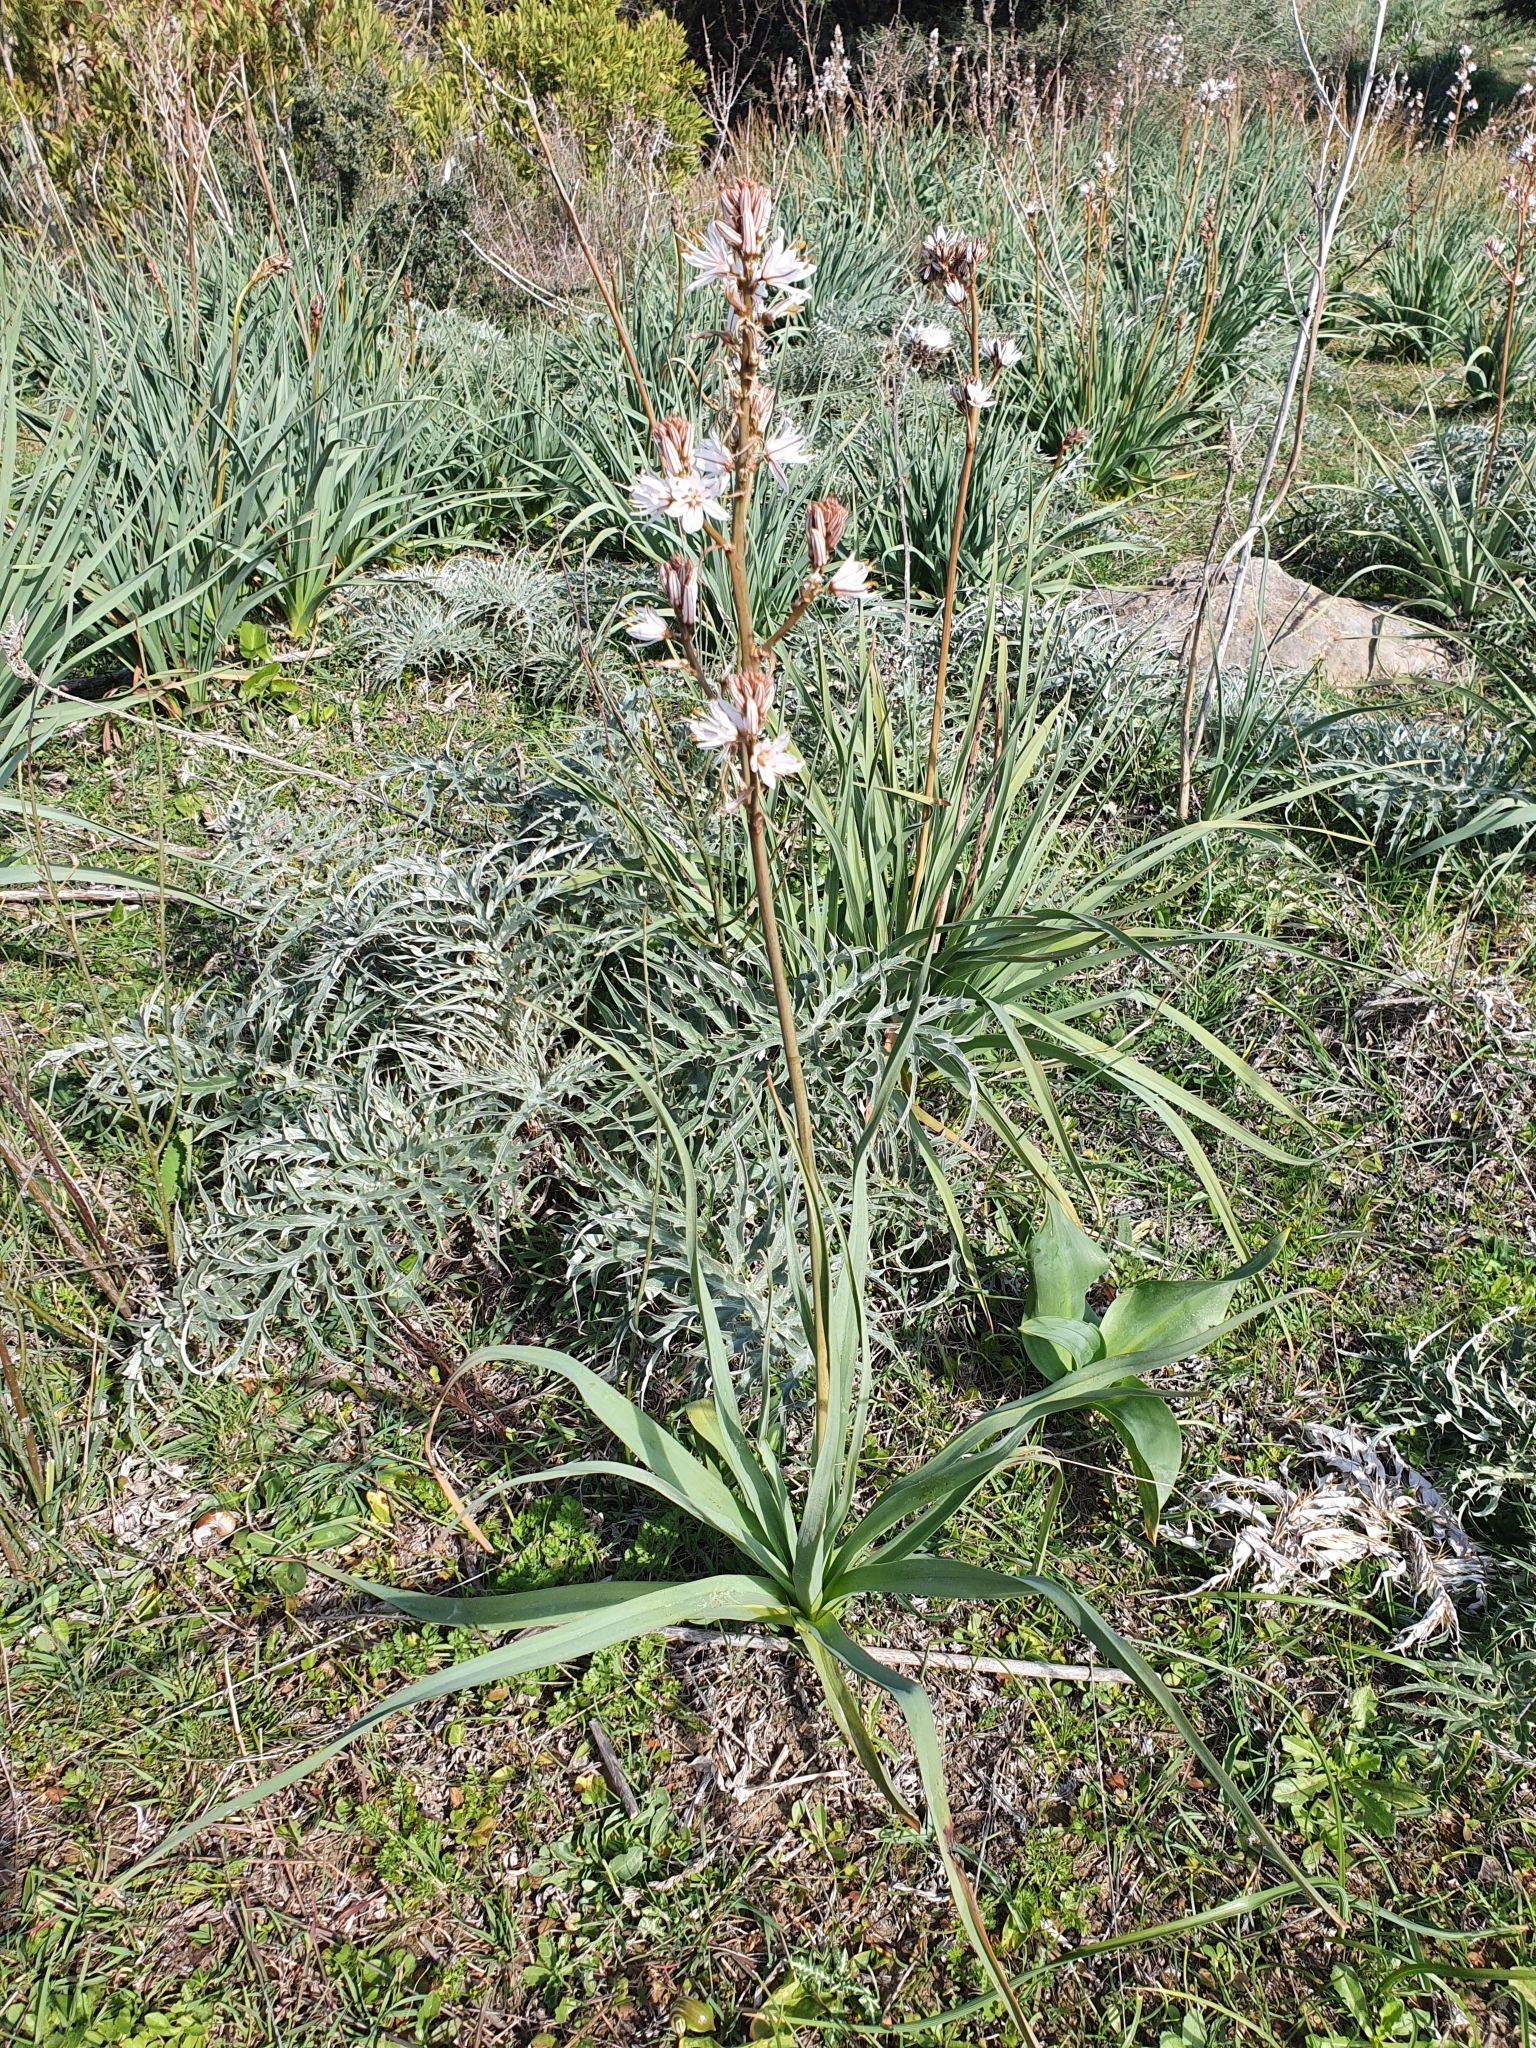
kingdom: Plantae
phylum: Tracheophyta
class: Liliopsida
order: Asparagales
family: Asphodelaceae
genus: Asphodelus
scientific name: Asphodelus ramosus
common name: Silverrod
